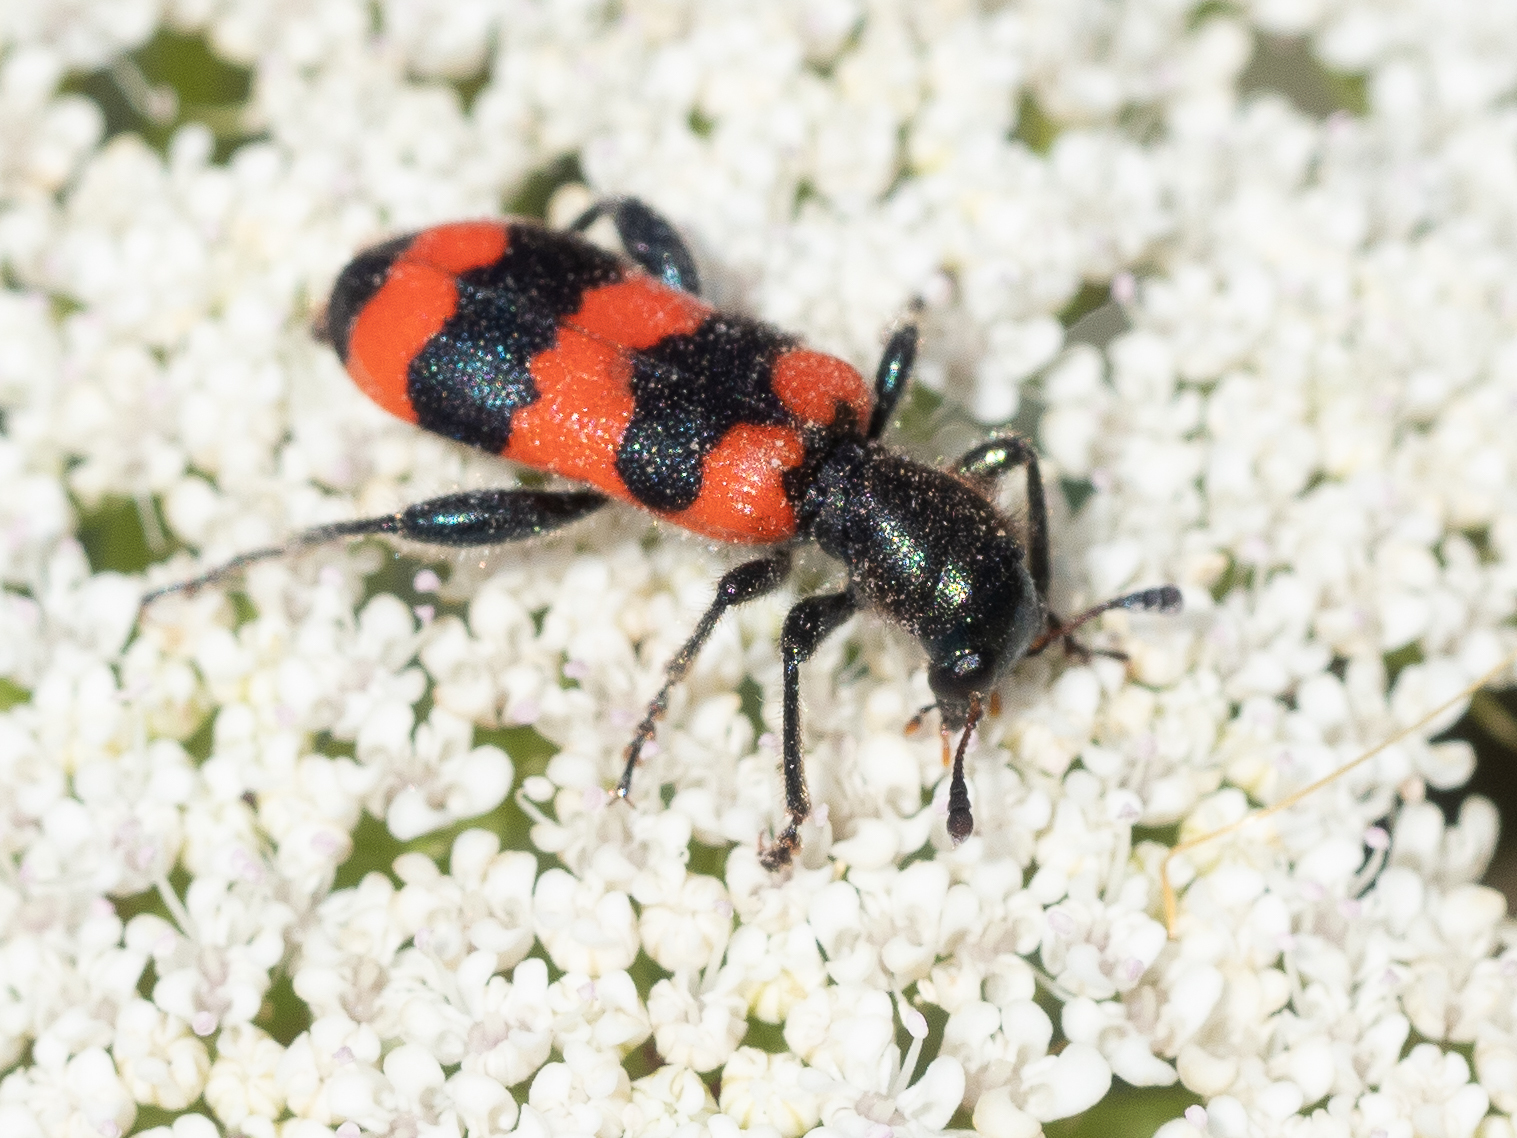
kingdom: Animalia
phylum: Arthropoda
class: Insecta
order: Coleoptera
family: Cleridae
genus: Trichodes
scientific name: Trichodes apiarius
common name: Bee-eating beetle
